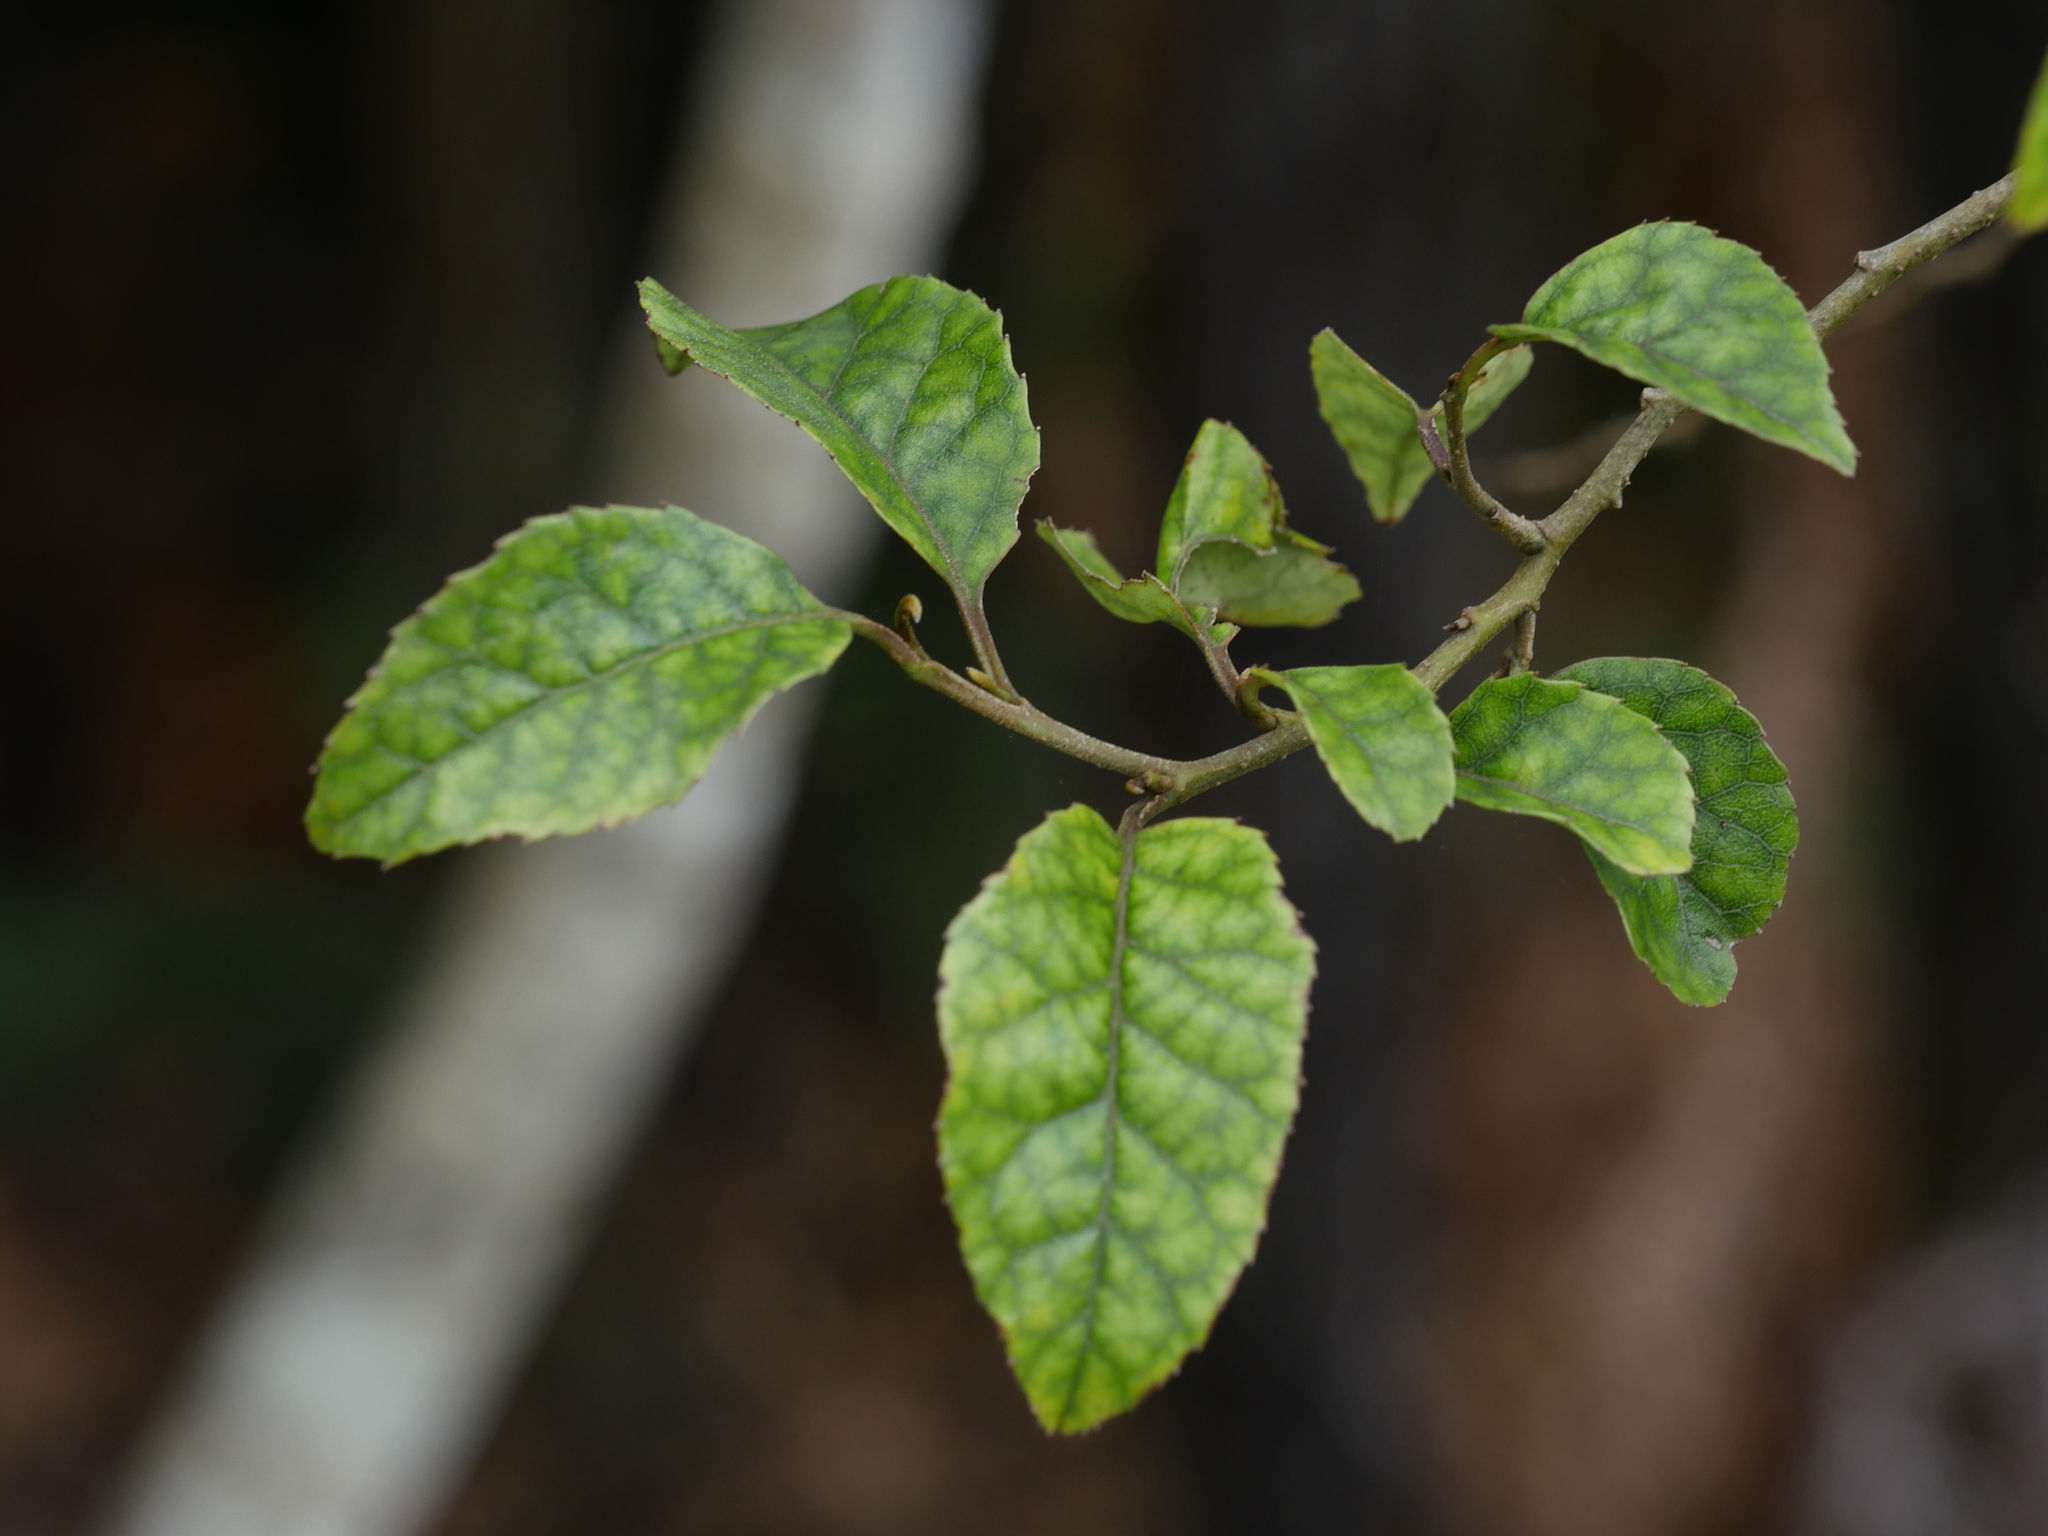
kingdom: Plantae
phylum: Tracheophyta
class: Magnoliopsida
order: Asterales
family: Rousseaceae
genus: Carpodetus
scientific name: Carpodetus serratus
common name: White mapau
